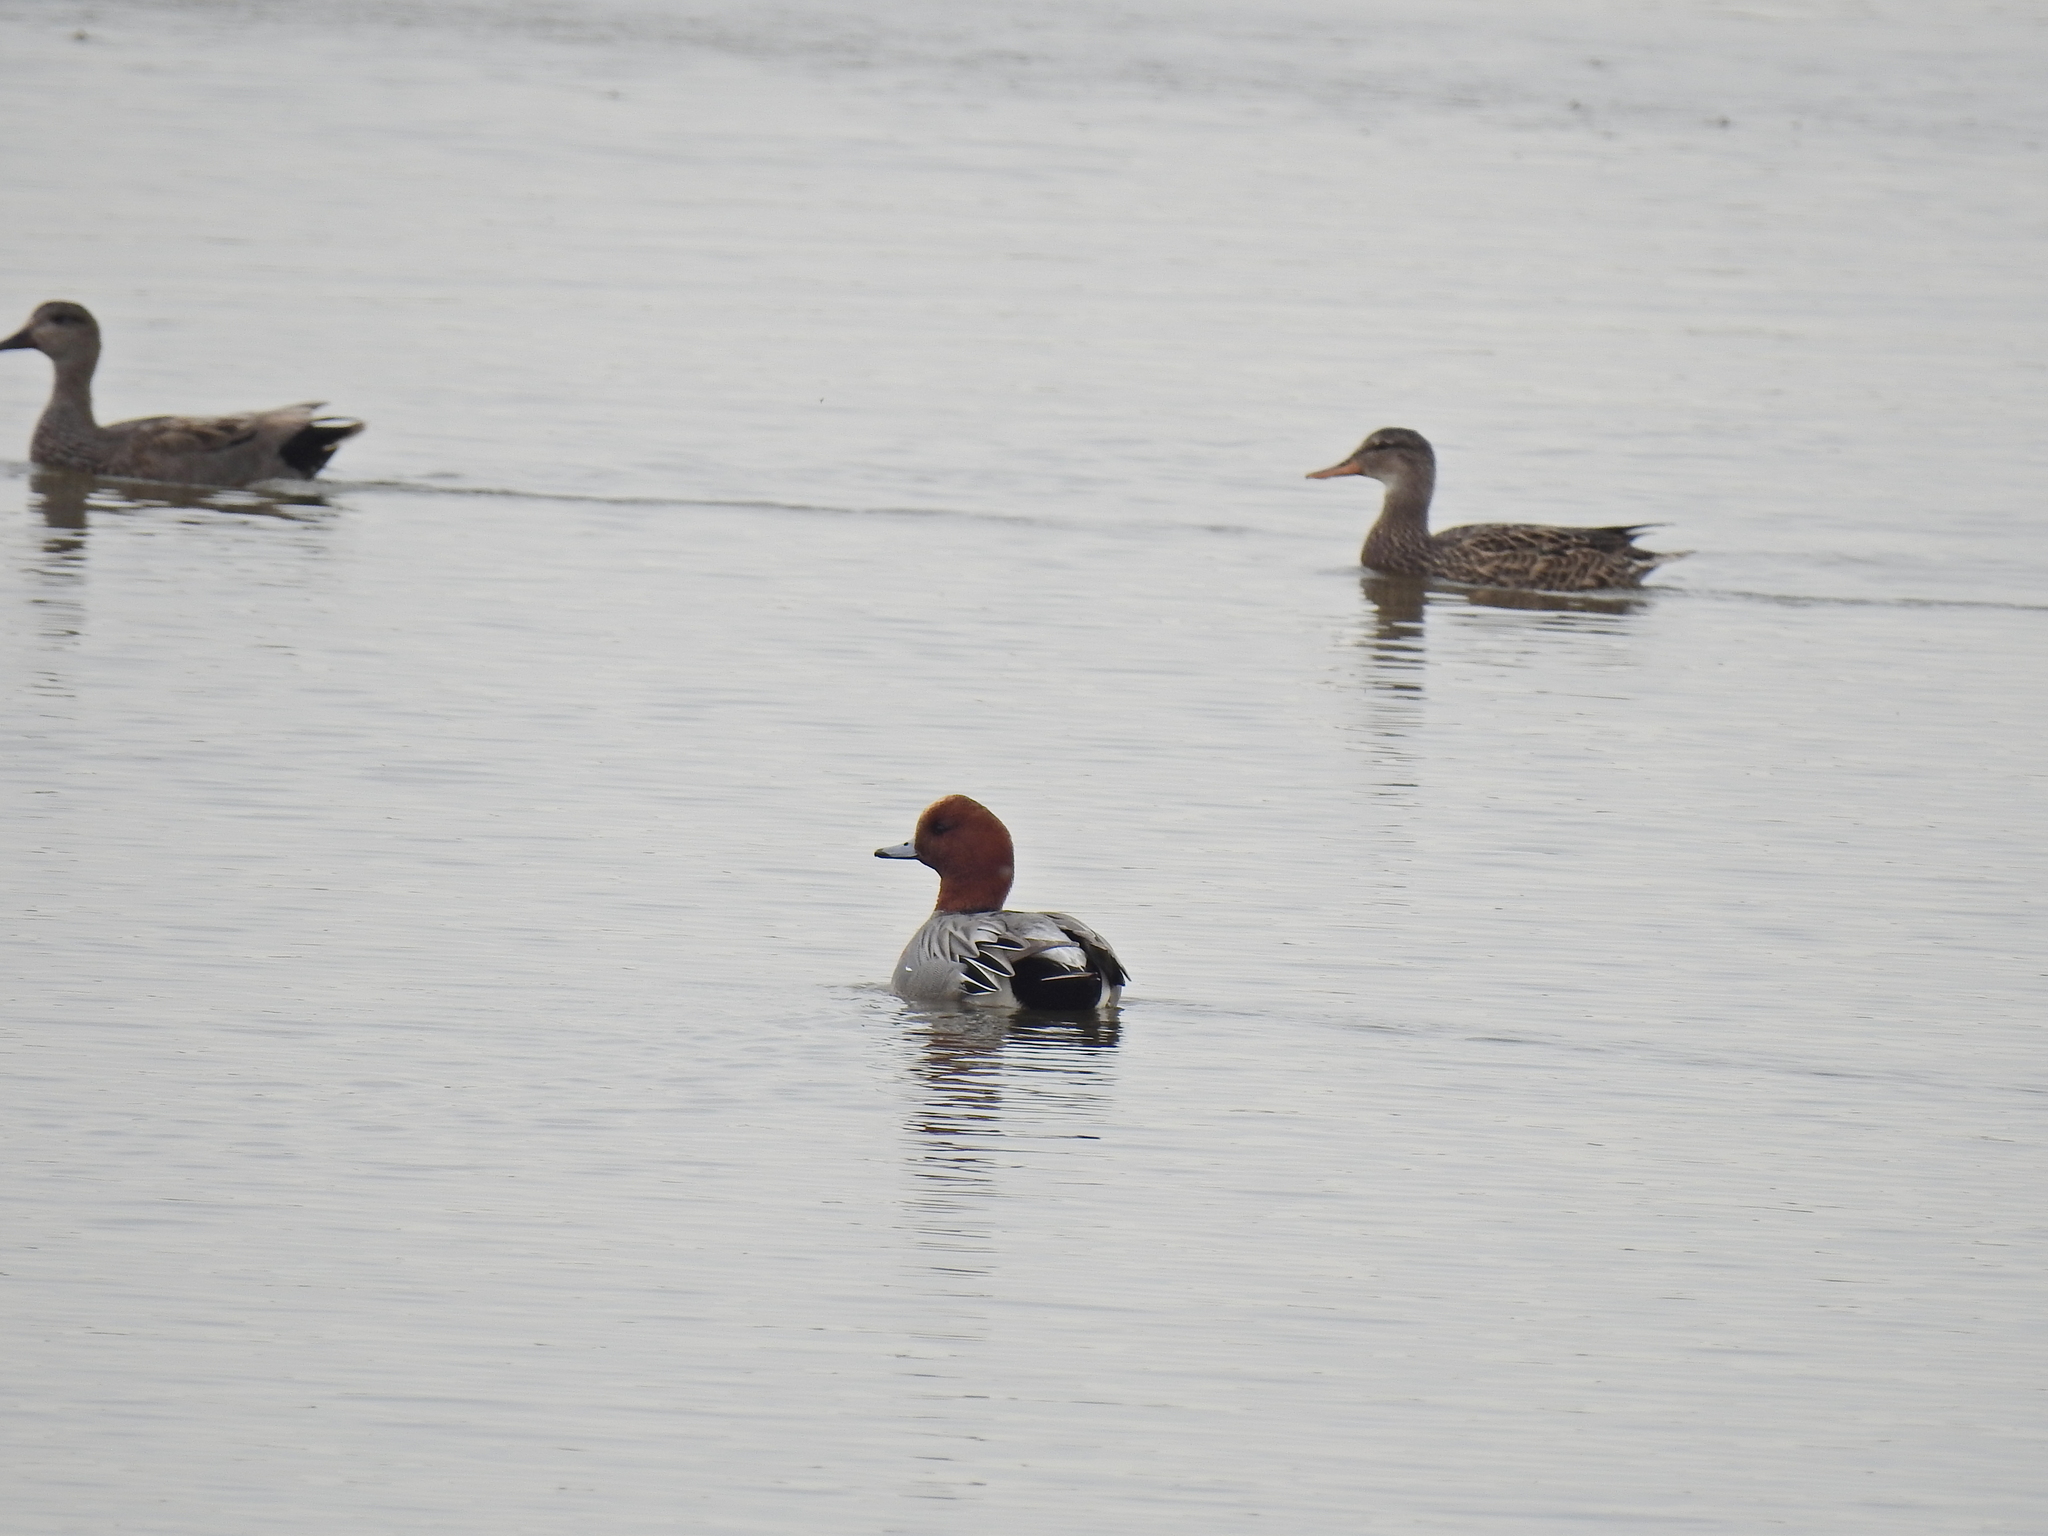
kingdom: Animalia
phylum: Chordata
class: Aves
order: Anseriformes
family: Anatidae
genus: Mareca
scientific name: Mareca penelope
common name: Eurasian wigeon
